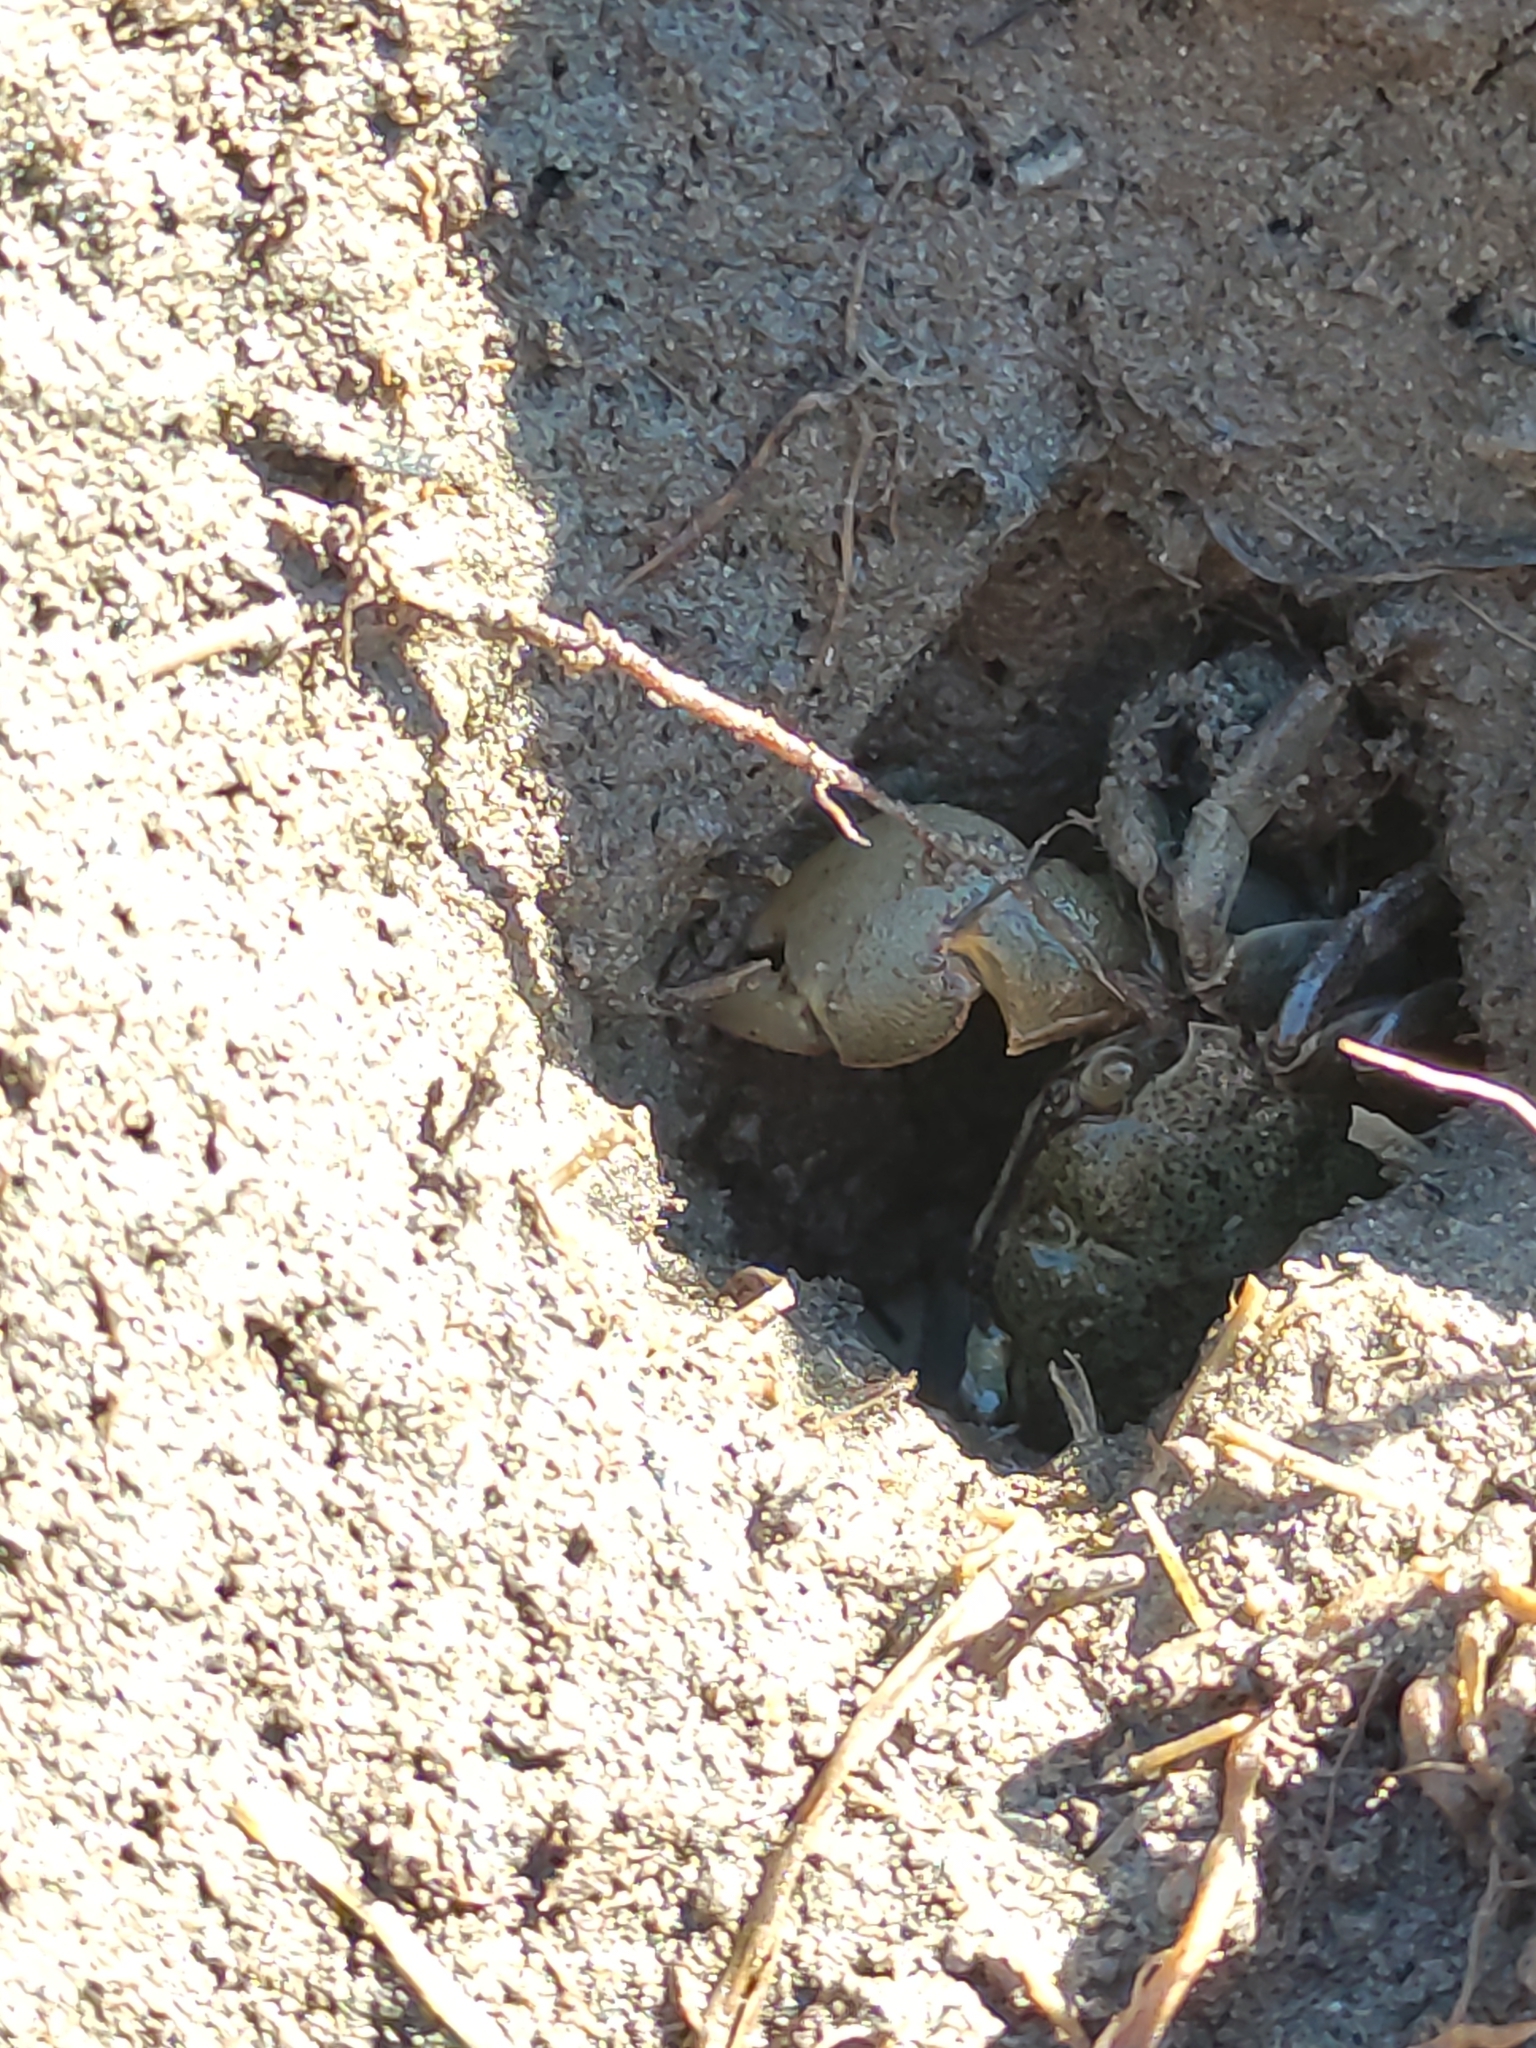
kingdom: Animalia
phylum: Arthropoda
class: Malacostraca
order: Decapoda
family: Varunidae
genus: Austrohelice
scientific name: Austrohelice crassa
